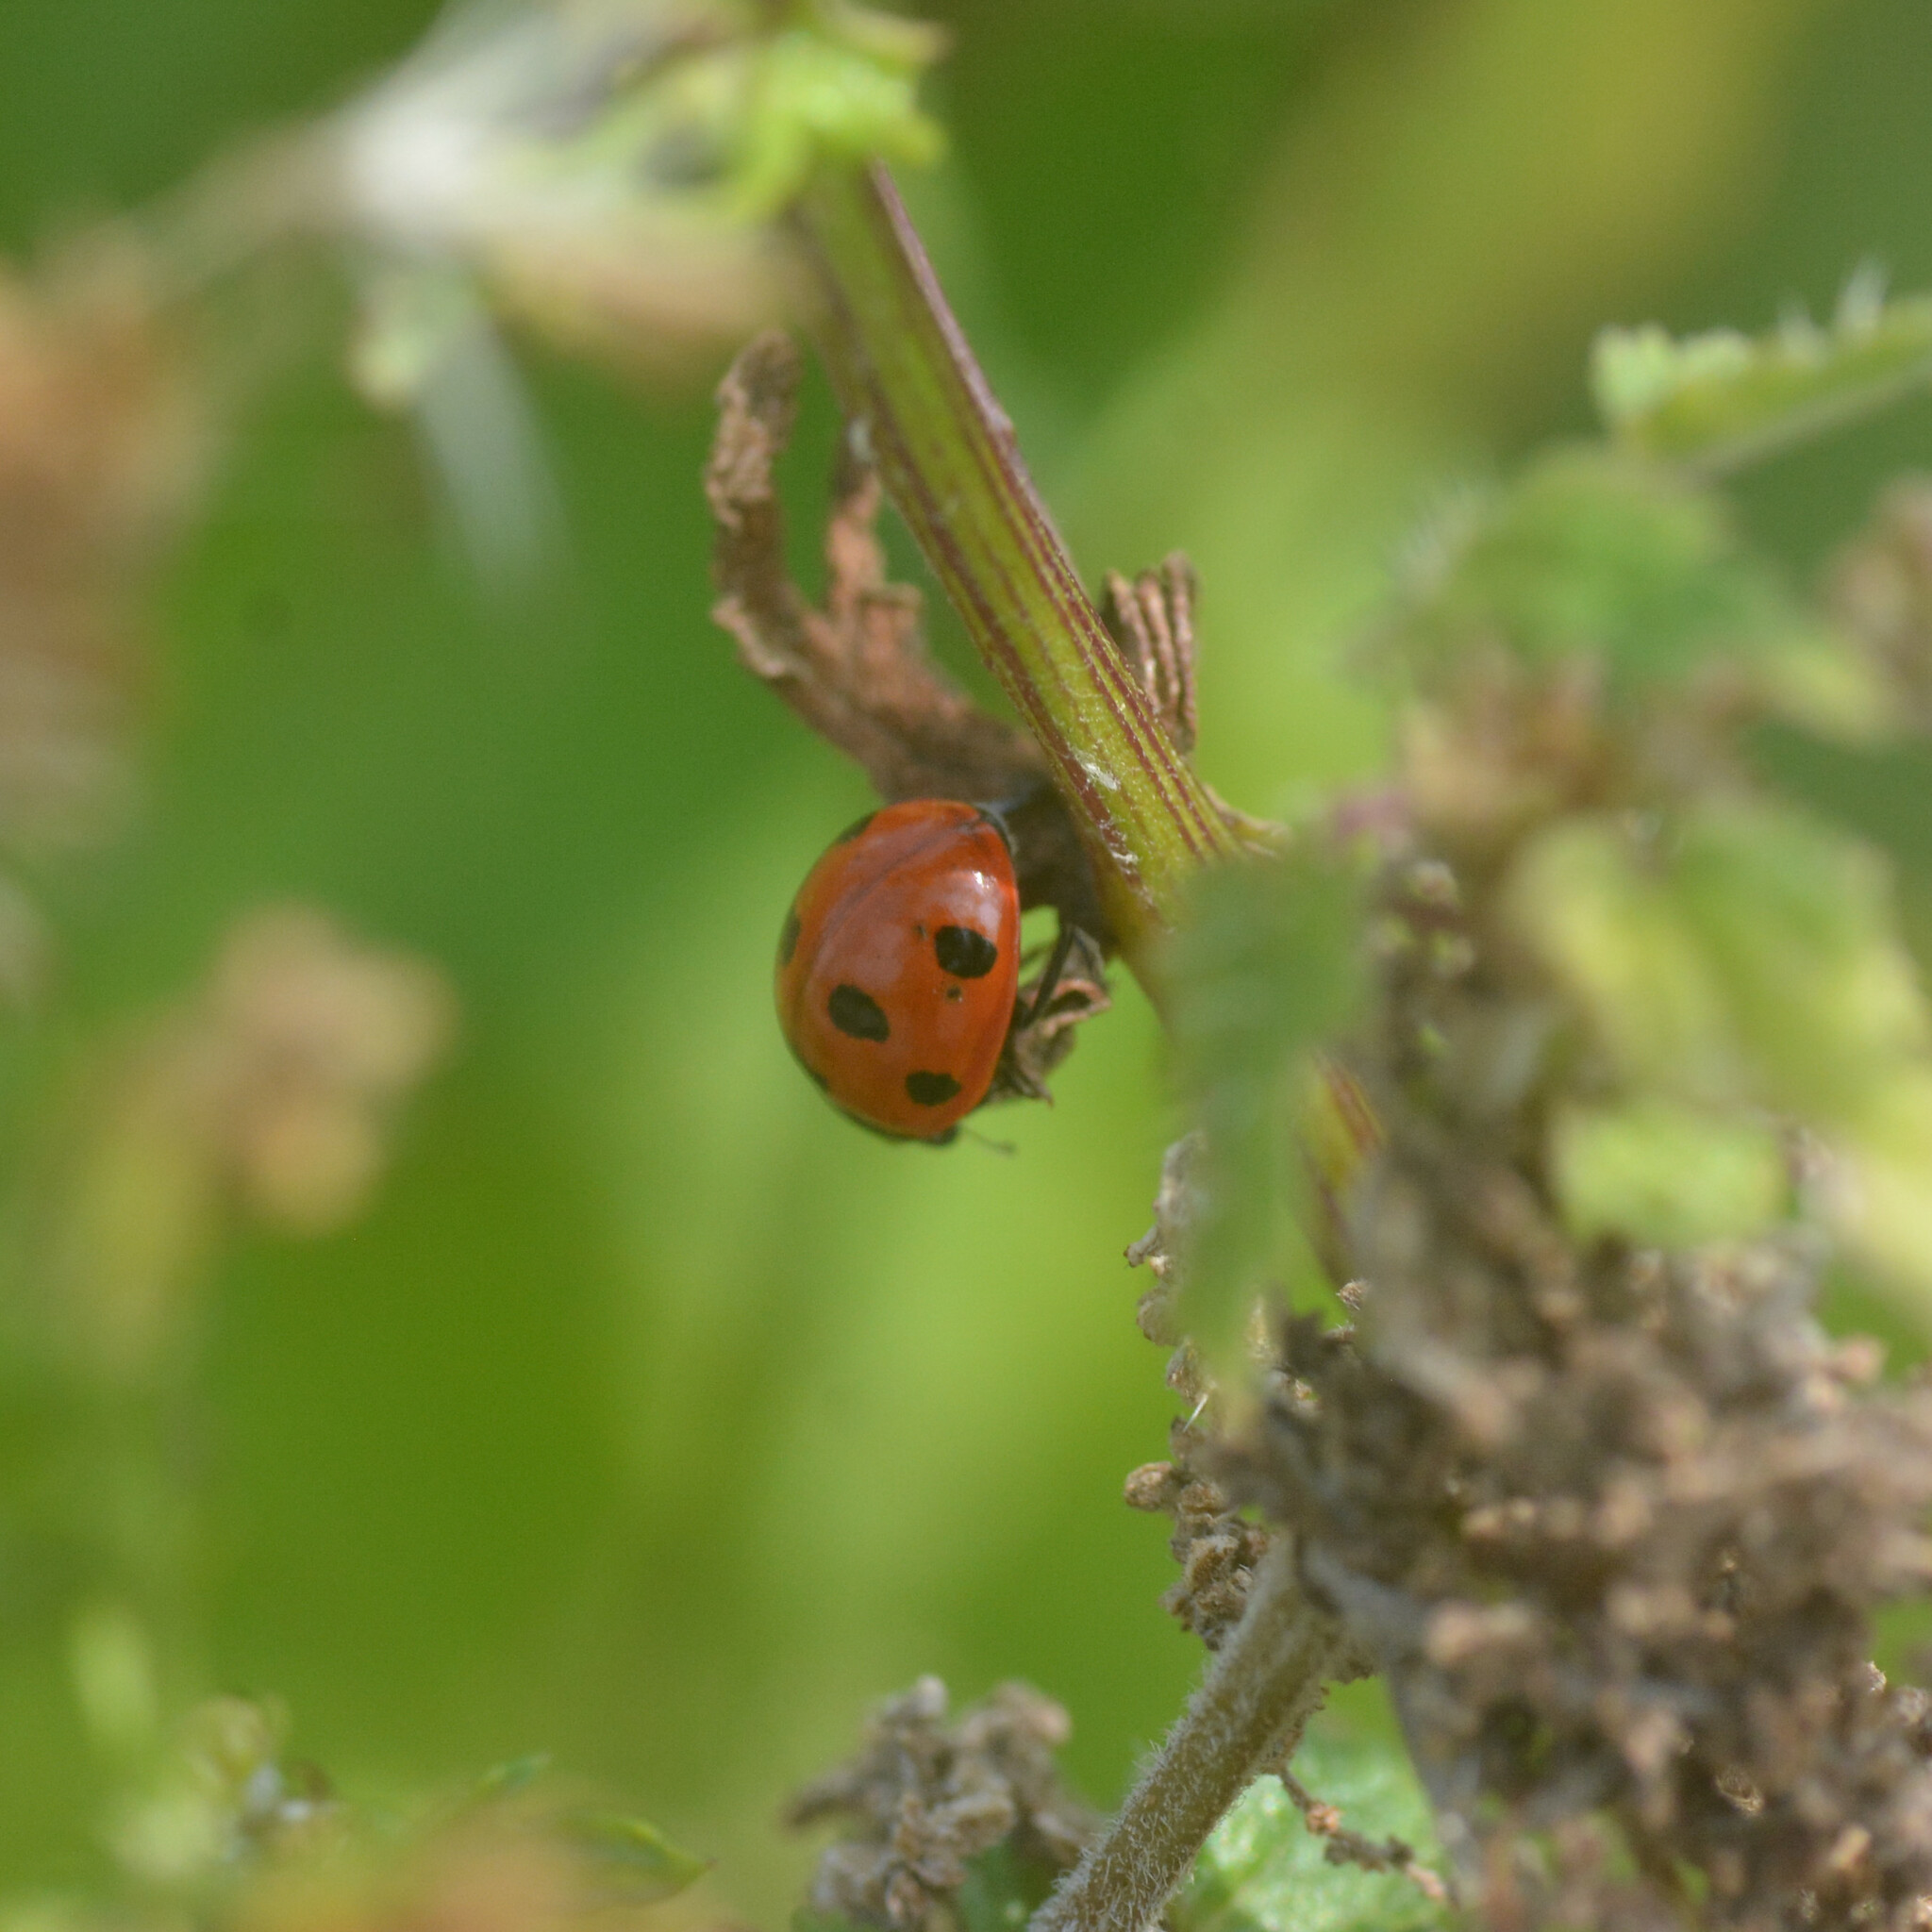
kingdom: Animalia
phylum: Arthropoda
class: Insecta
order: Coleoptera
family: Coccinellidae
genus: Coccinella
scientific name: Coccinella septempunctata
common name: Sevenspotted lady beetle
